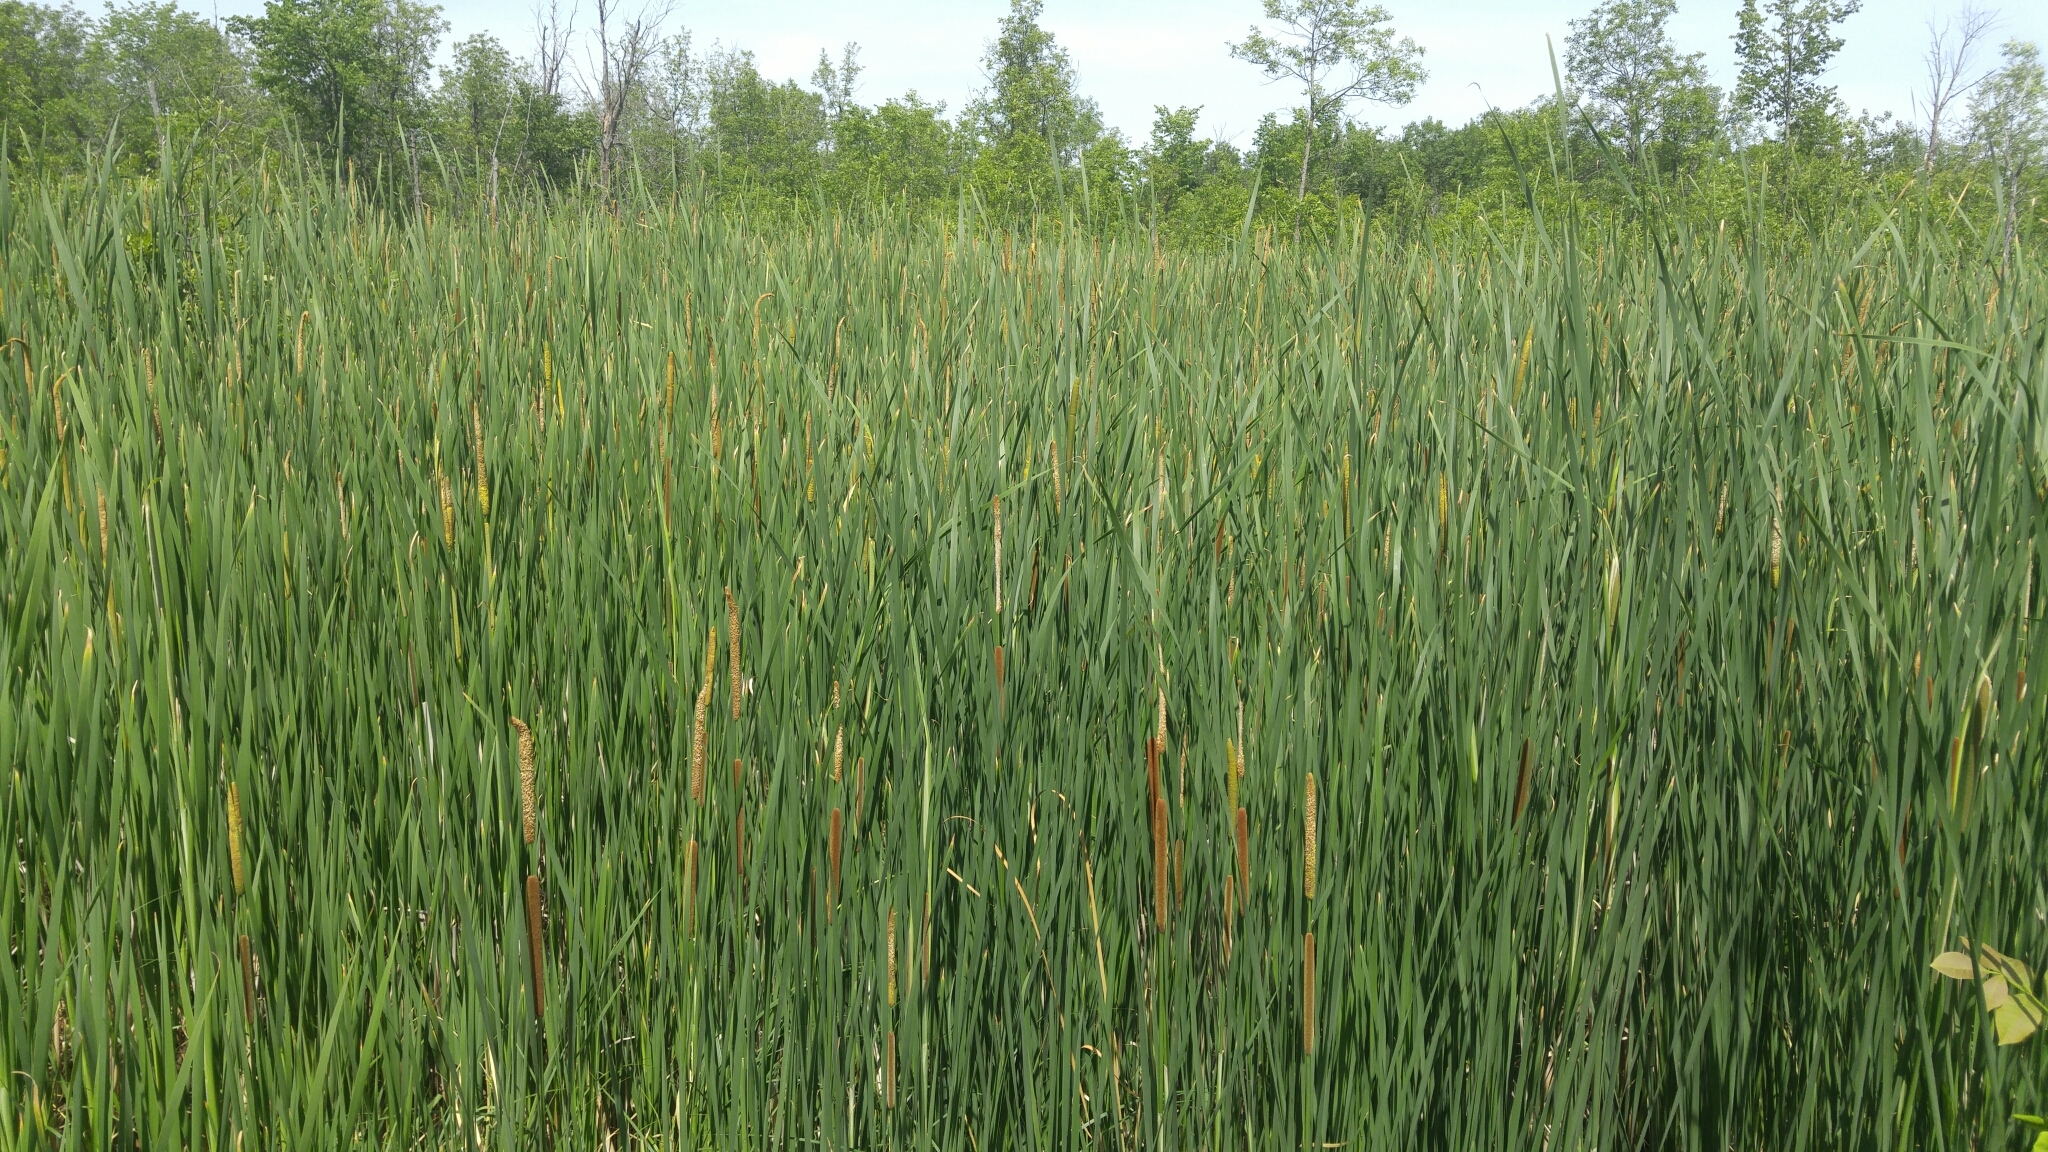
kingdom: Plantae
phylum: Tracheophyta
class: Liliopsida
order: Poales
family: Typhaceae
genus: Typha
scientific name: Typha angustifolia
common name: Lesser bulrush
